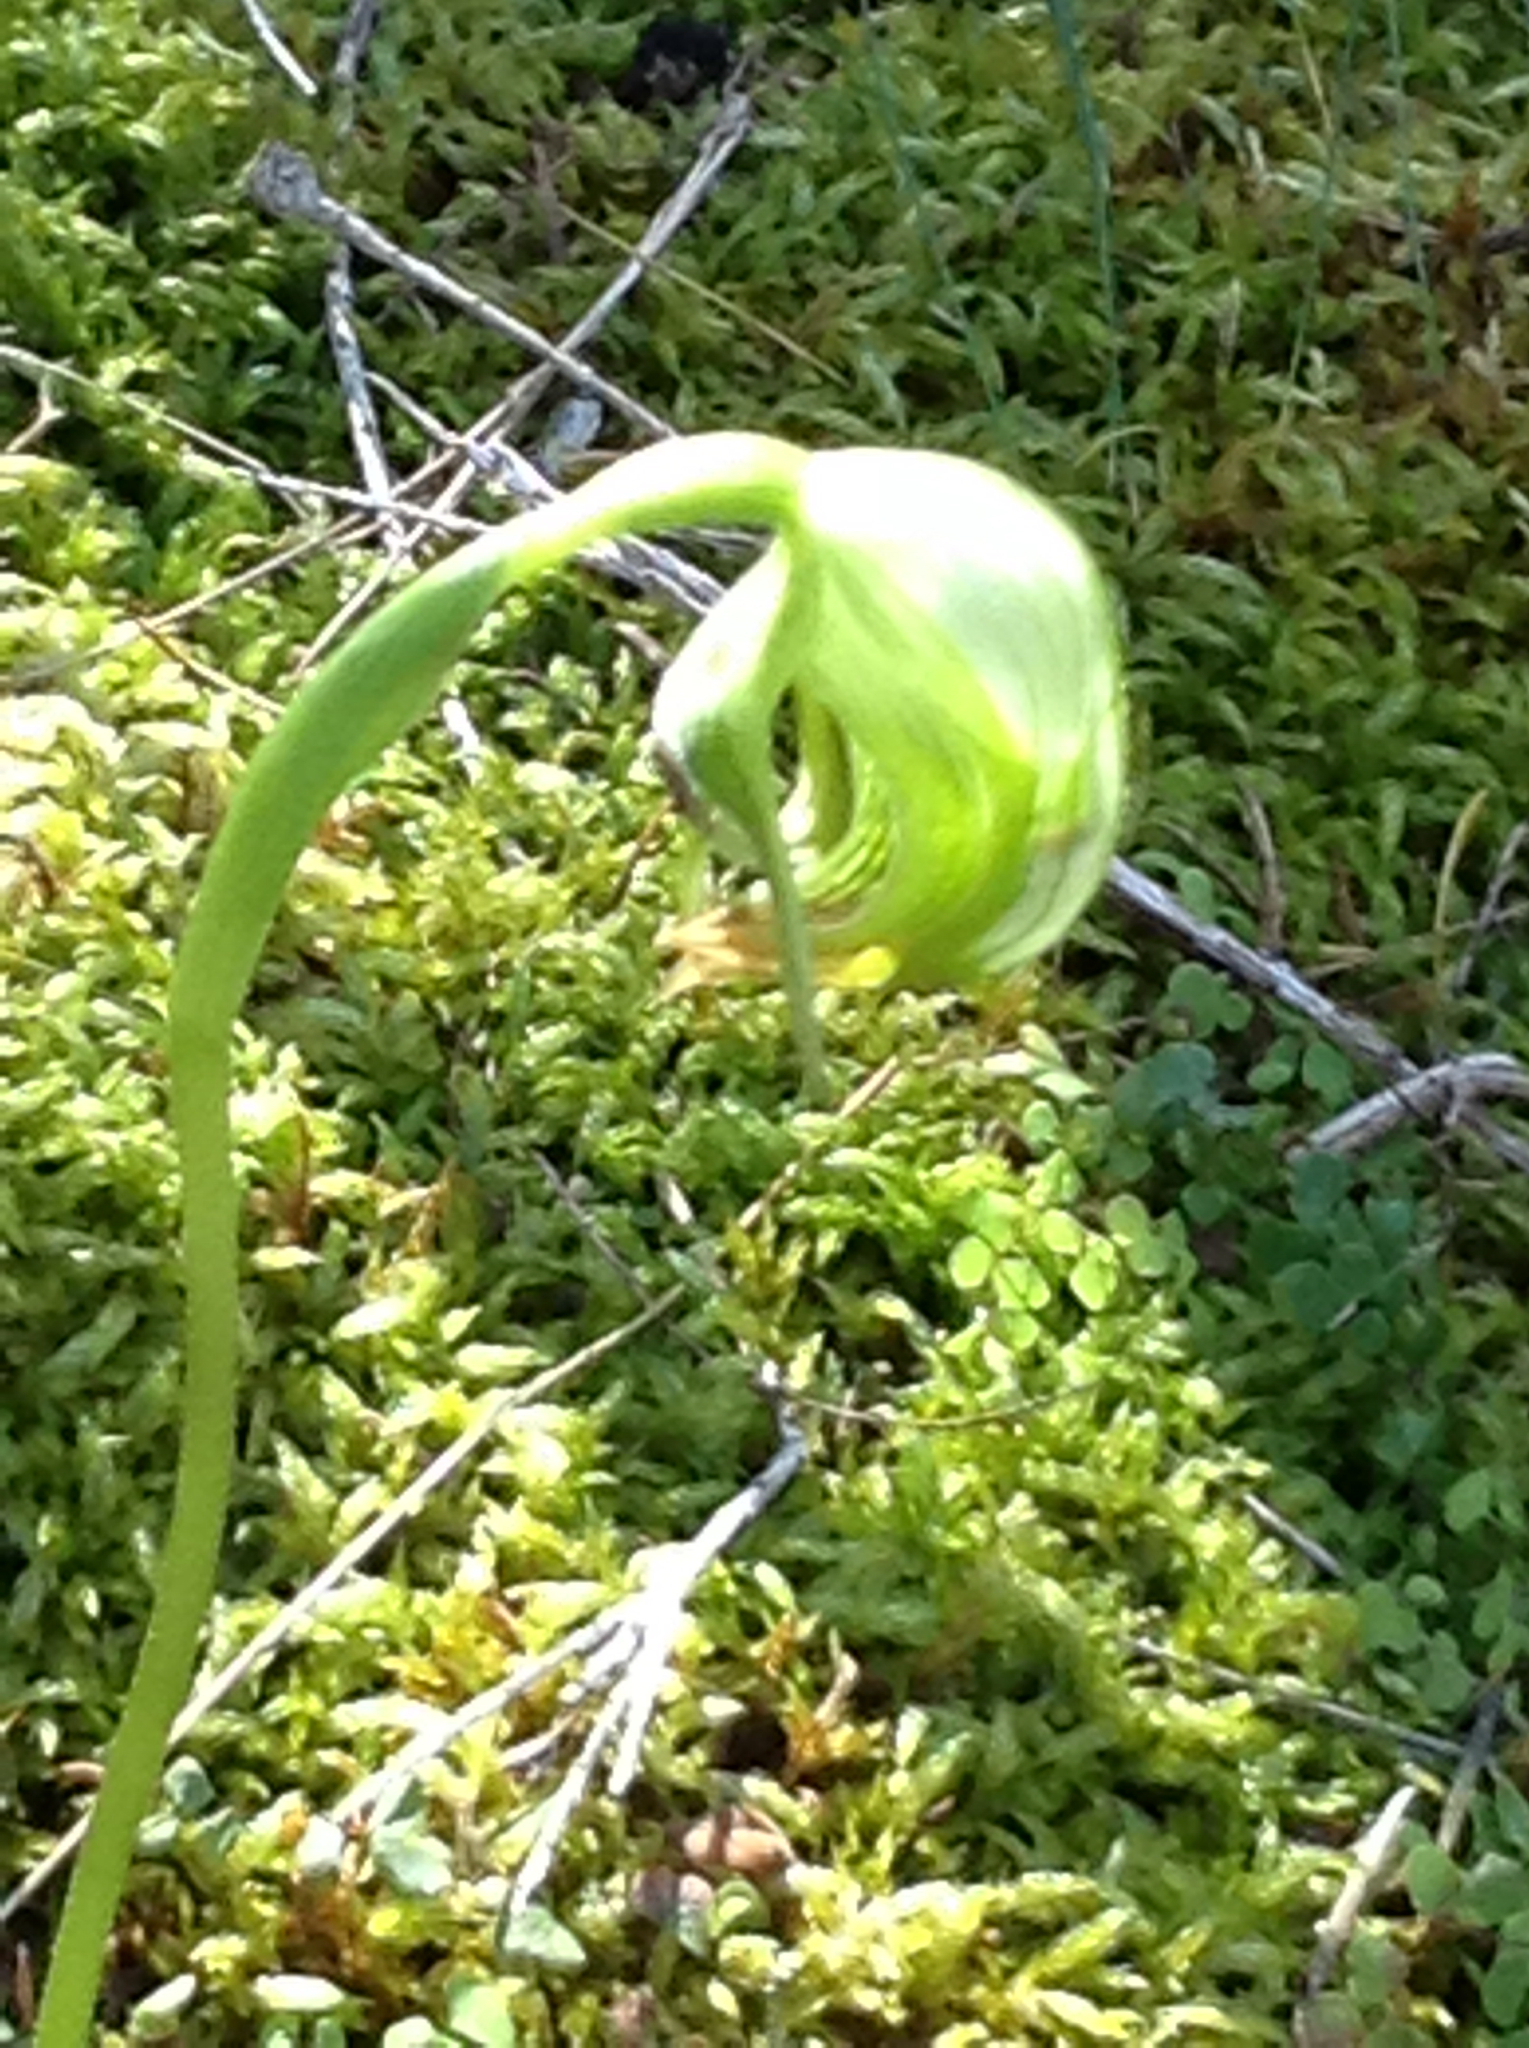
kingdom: Plantae
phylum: Tracheophyta
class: Liliopsida
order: Asparagales
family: Orchidaceae
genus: Pterostylis
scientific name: Pterostylis nutans
